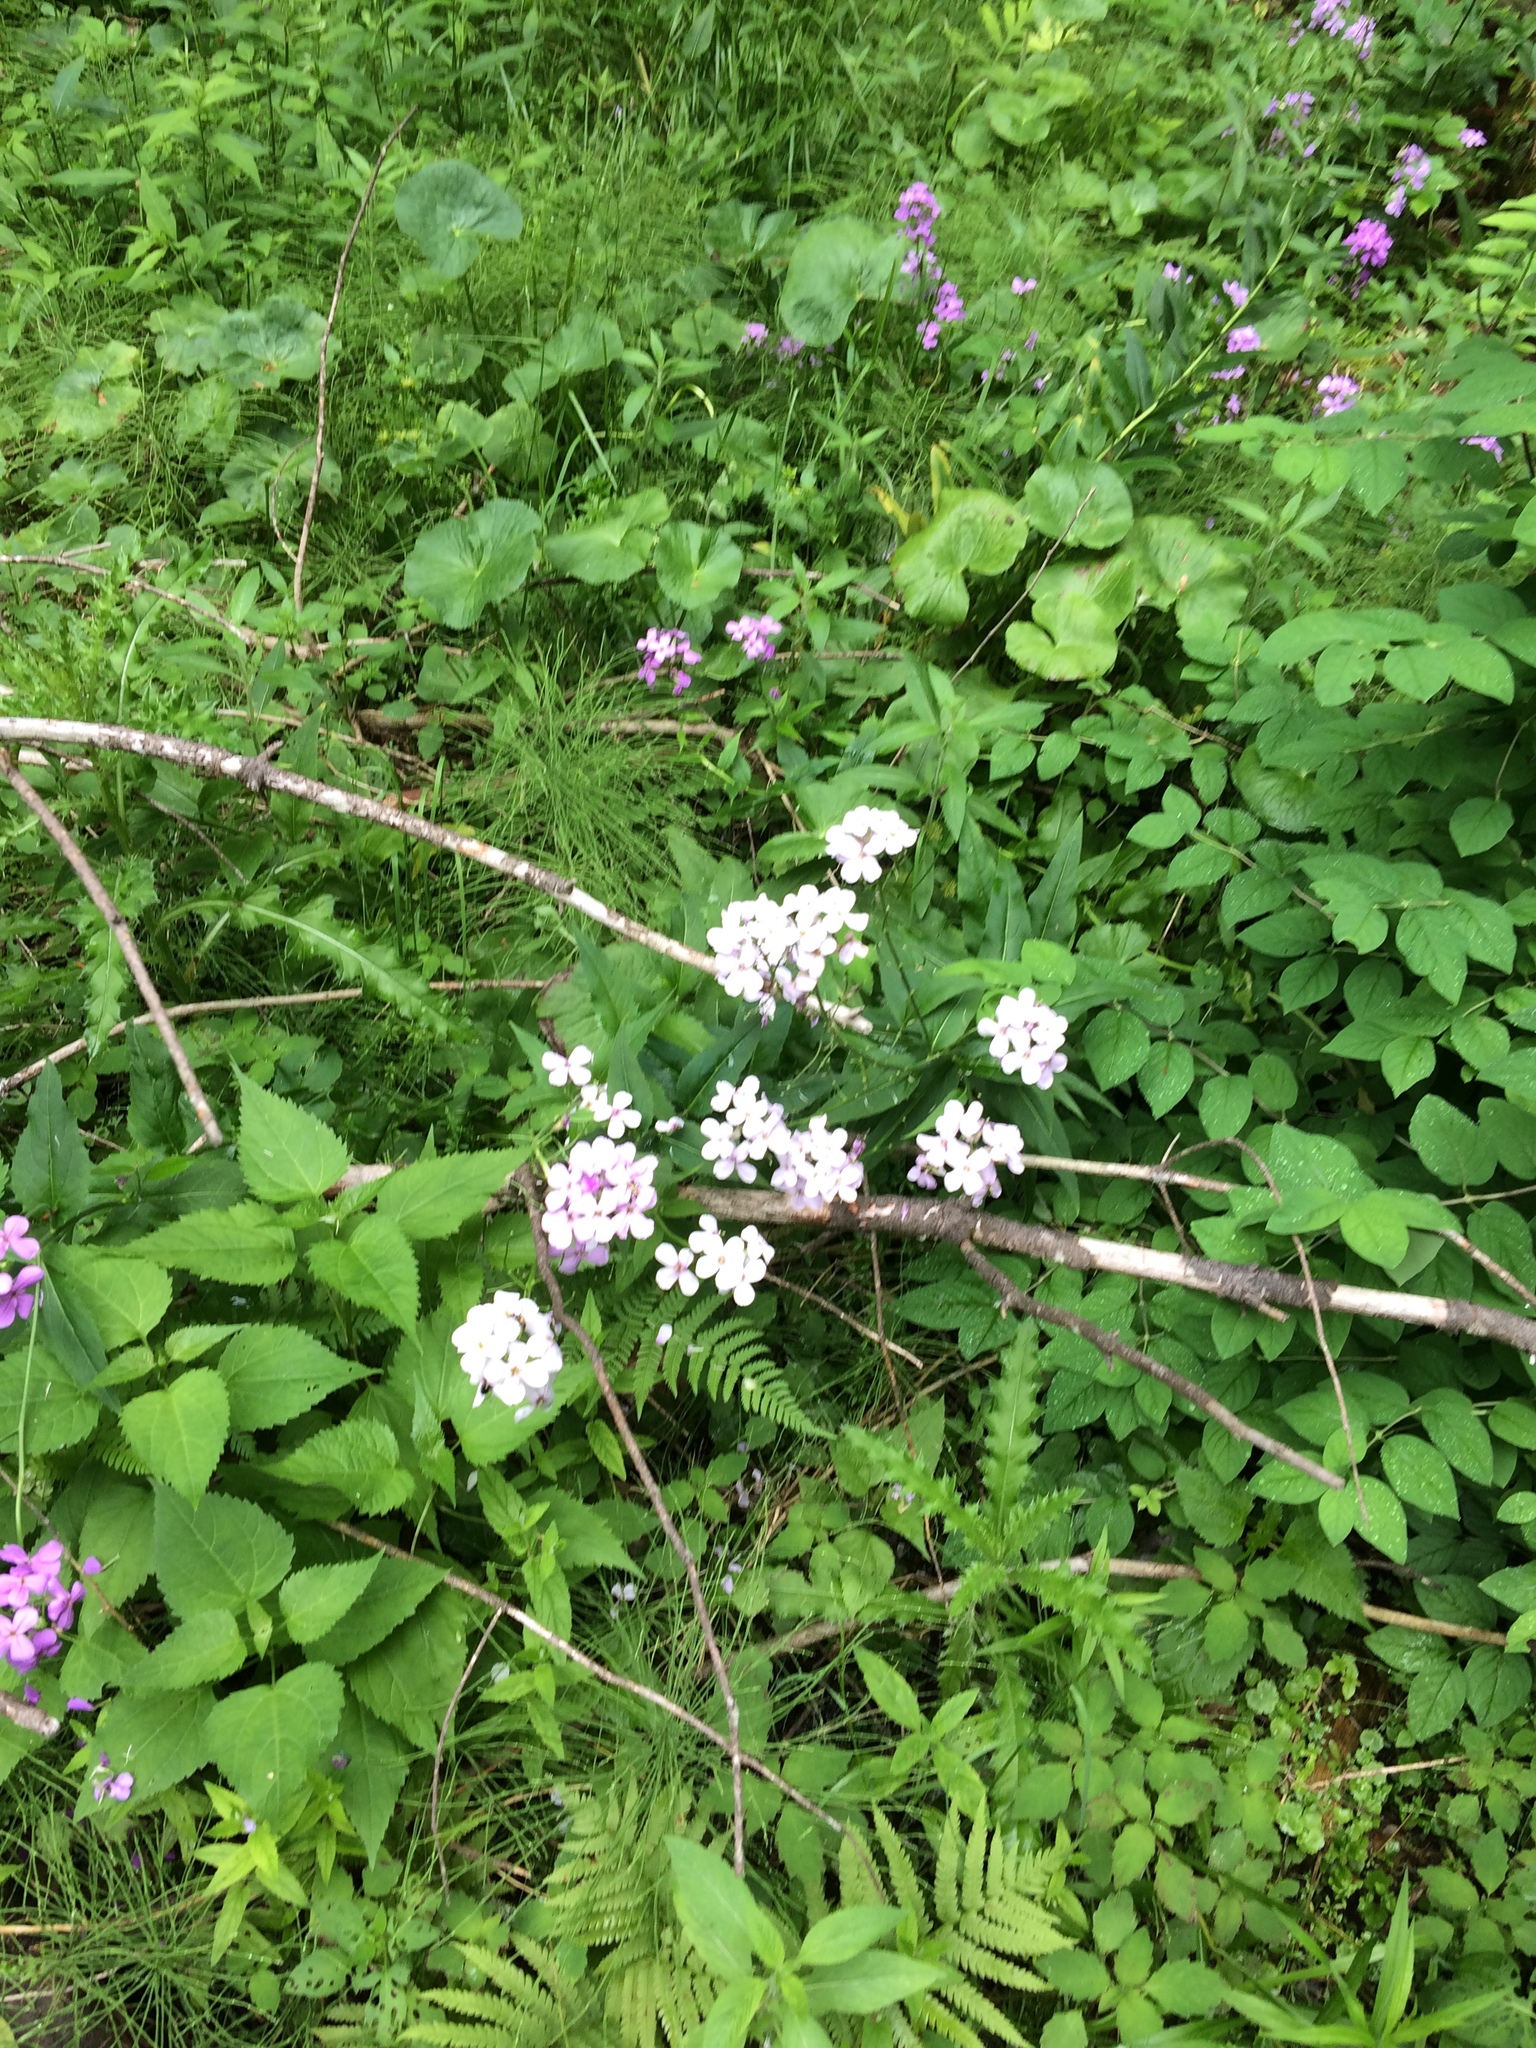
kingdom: Plantae
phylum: Tracheophyta
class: Magnoliopsida
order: Brassicales
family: Brassicaceae
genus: Hesperis
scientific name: Hesperis matronalis
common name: Dame's-violet
